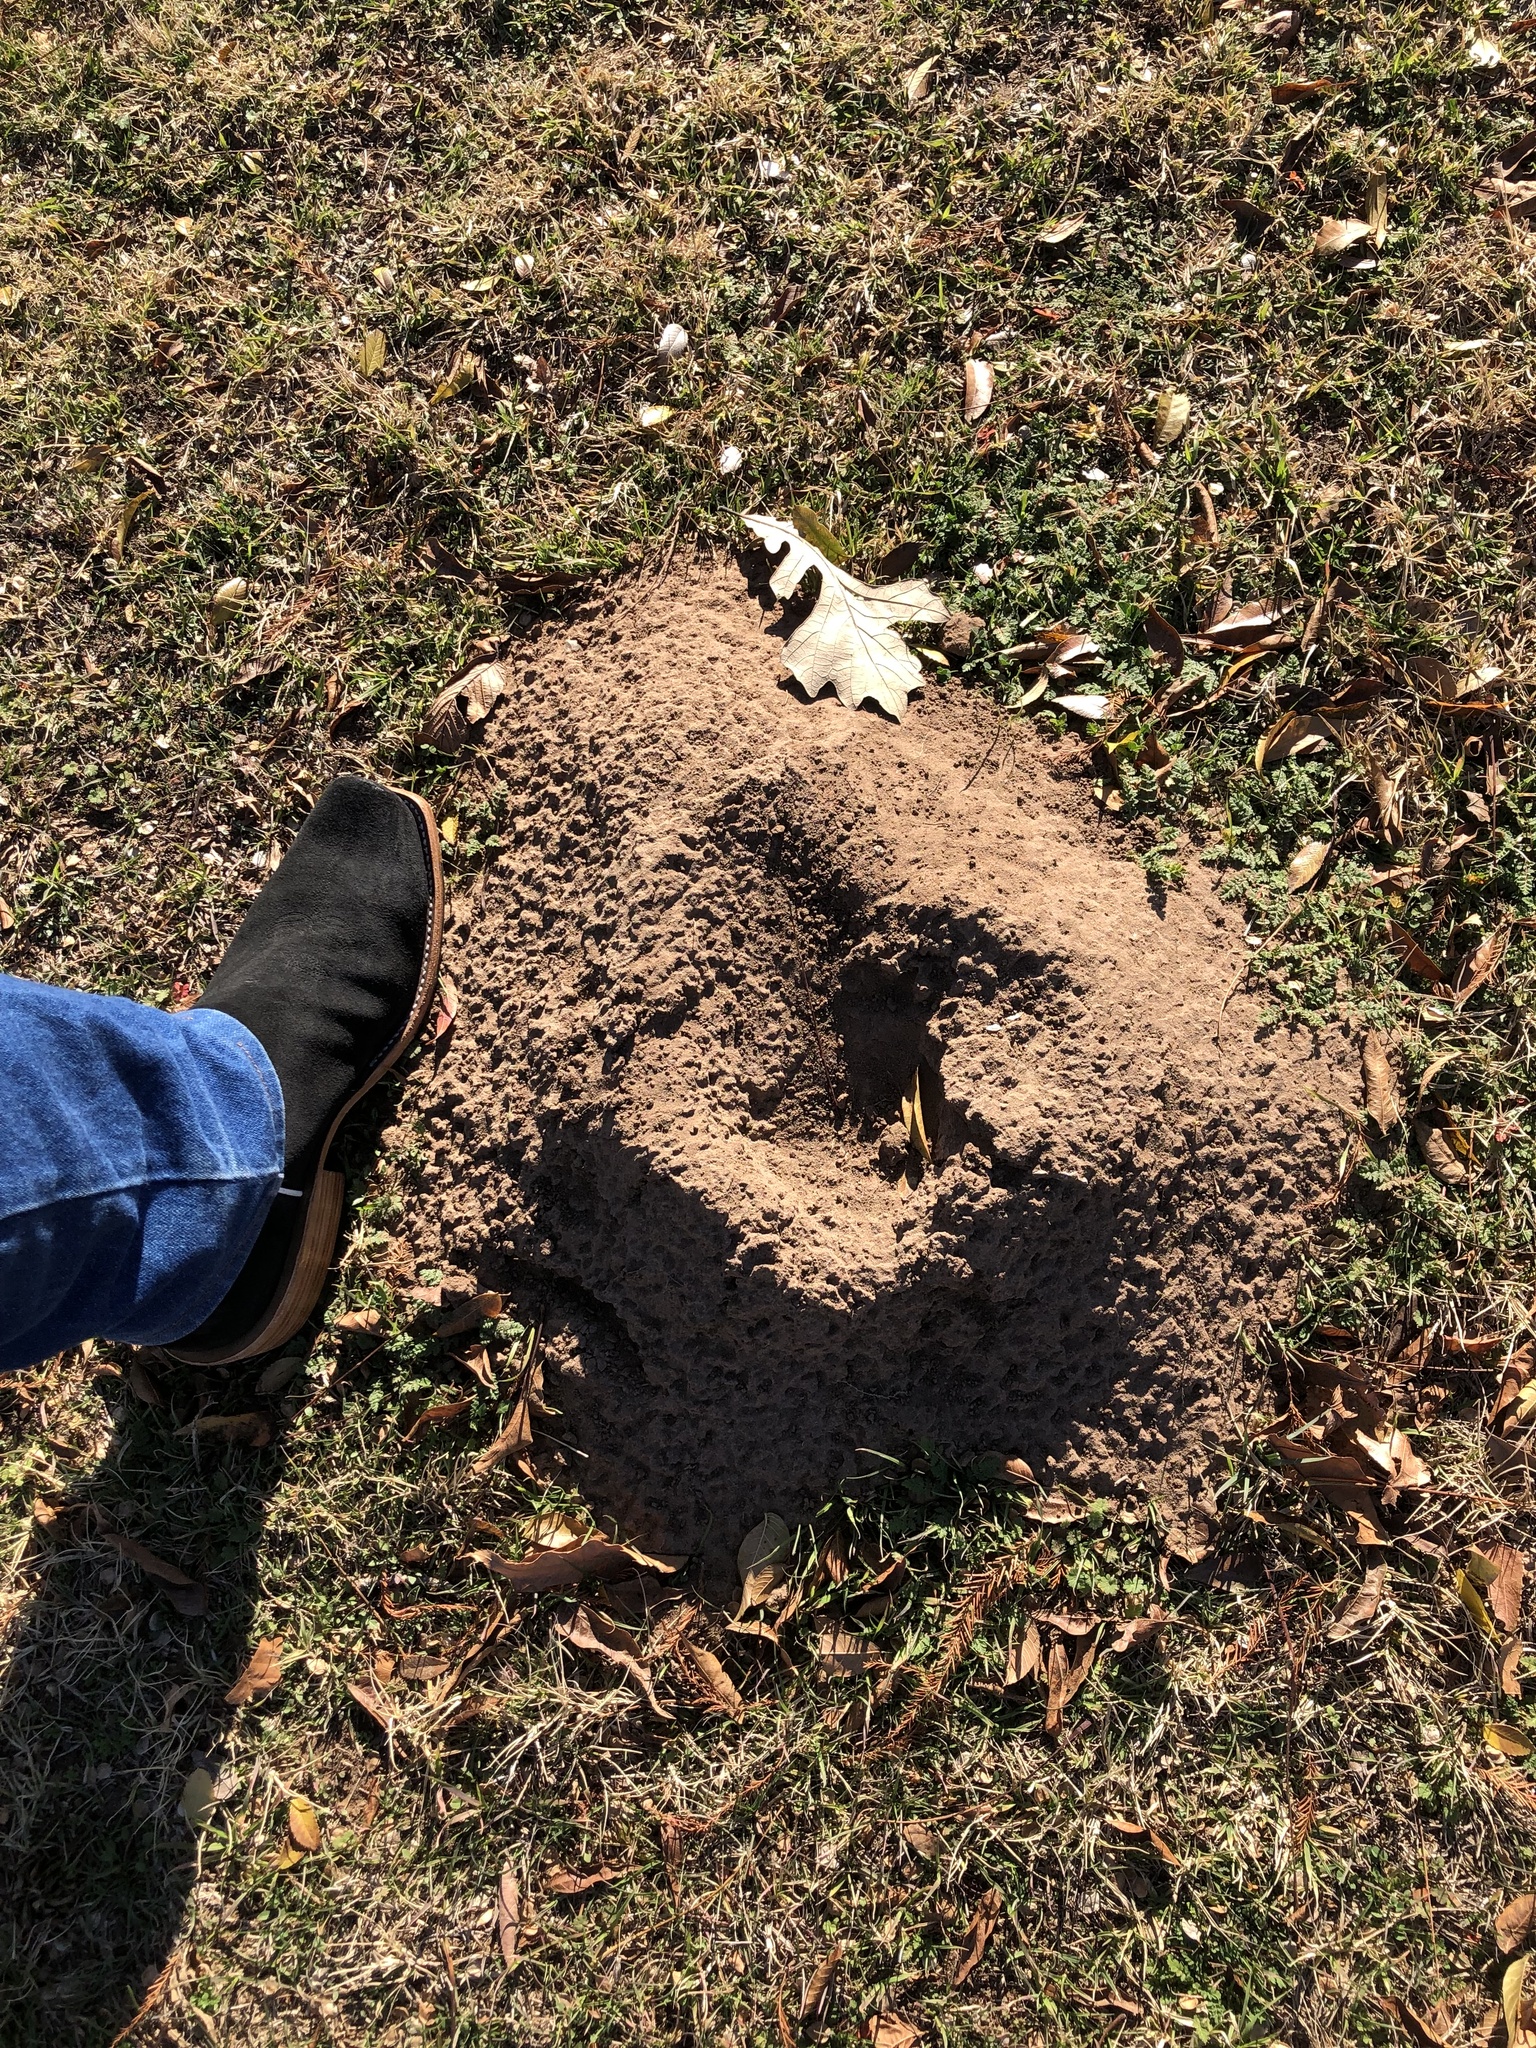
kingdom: Animalia
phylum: Chordata
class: Mammalia
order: Rodentia
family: Geomyidae
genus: Geomys
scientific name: Geomys bursarius
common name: Plains pocket gopher
